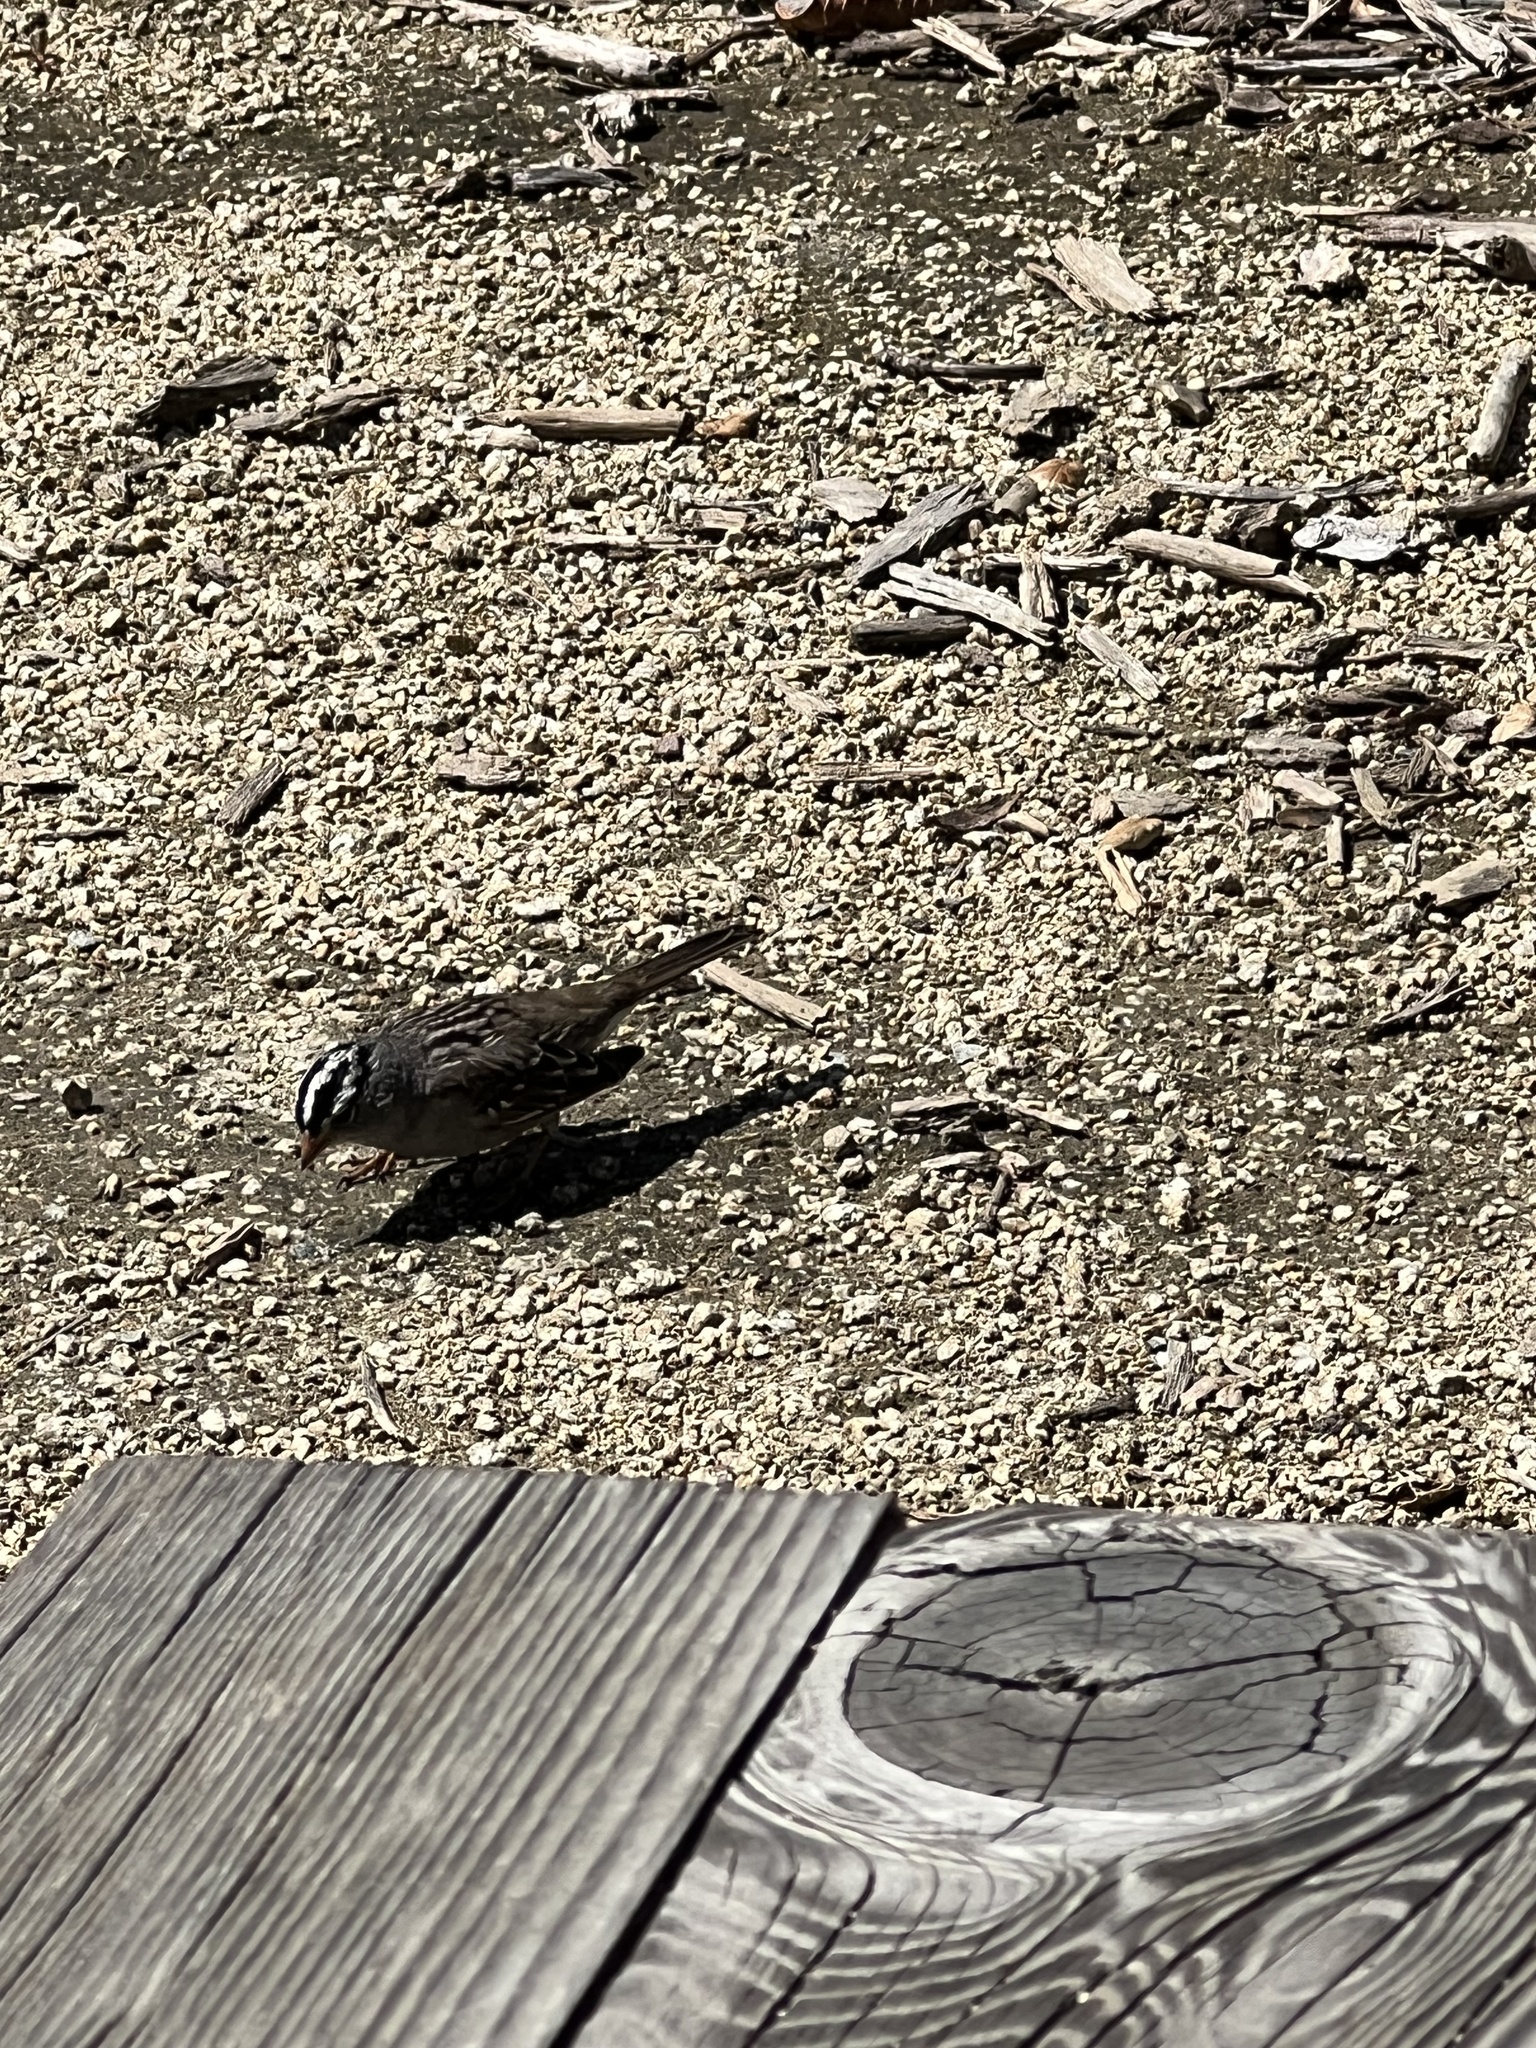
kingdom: Animalia
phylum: Chordata
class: Aves
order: Passeriformes
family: Passerellidae
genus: Zonotrichia
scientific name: Zonotrichia leucophrys
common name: White-crowned sparrow
